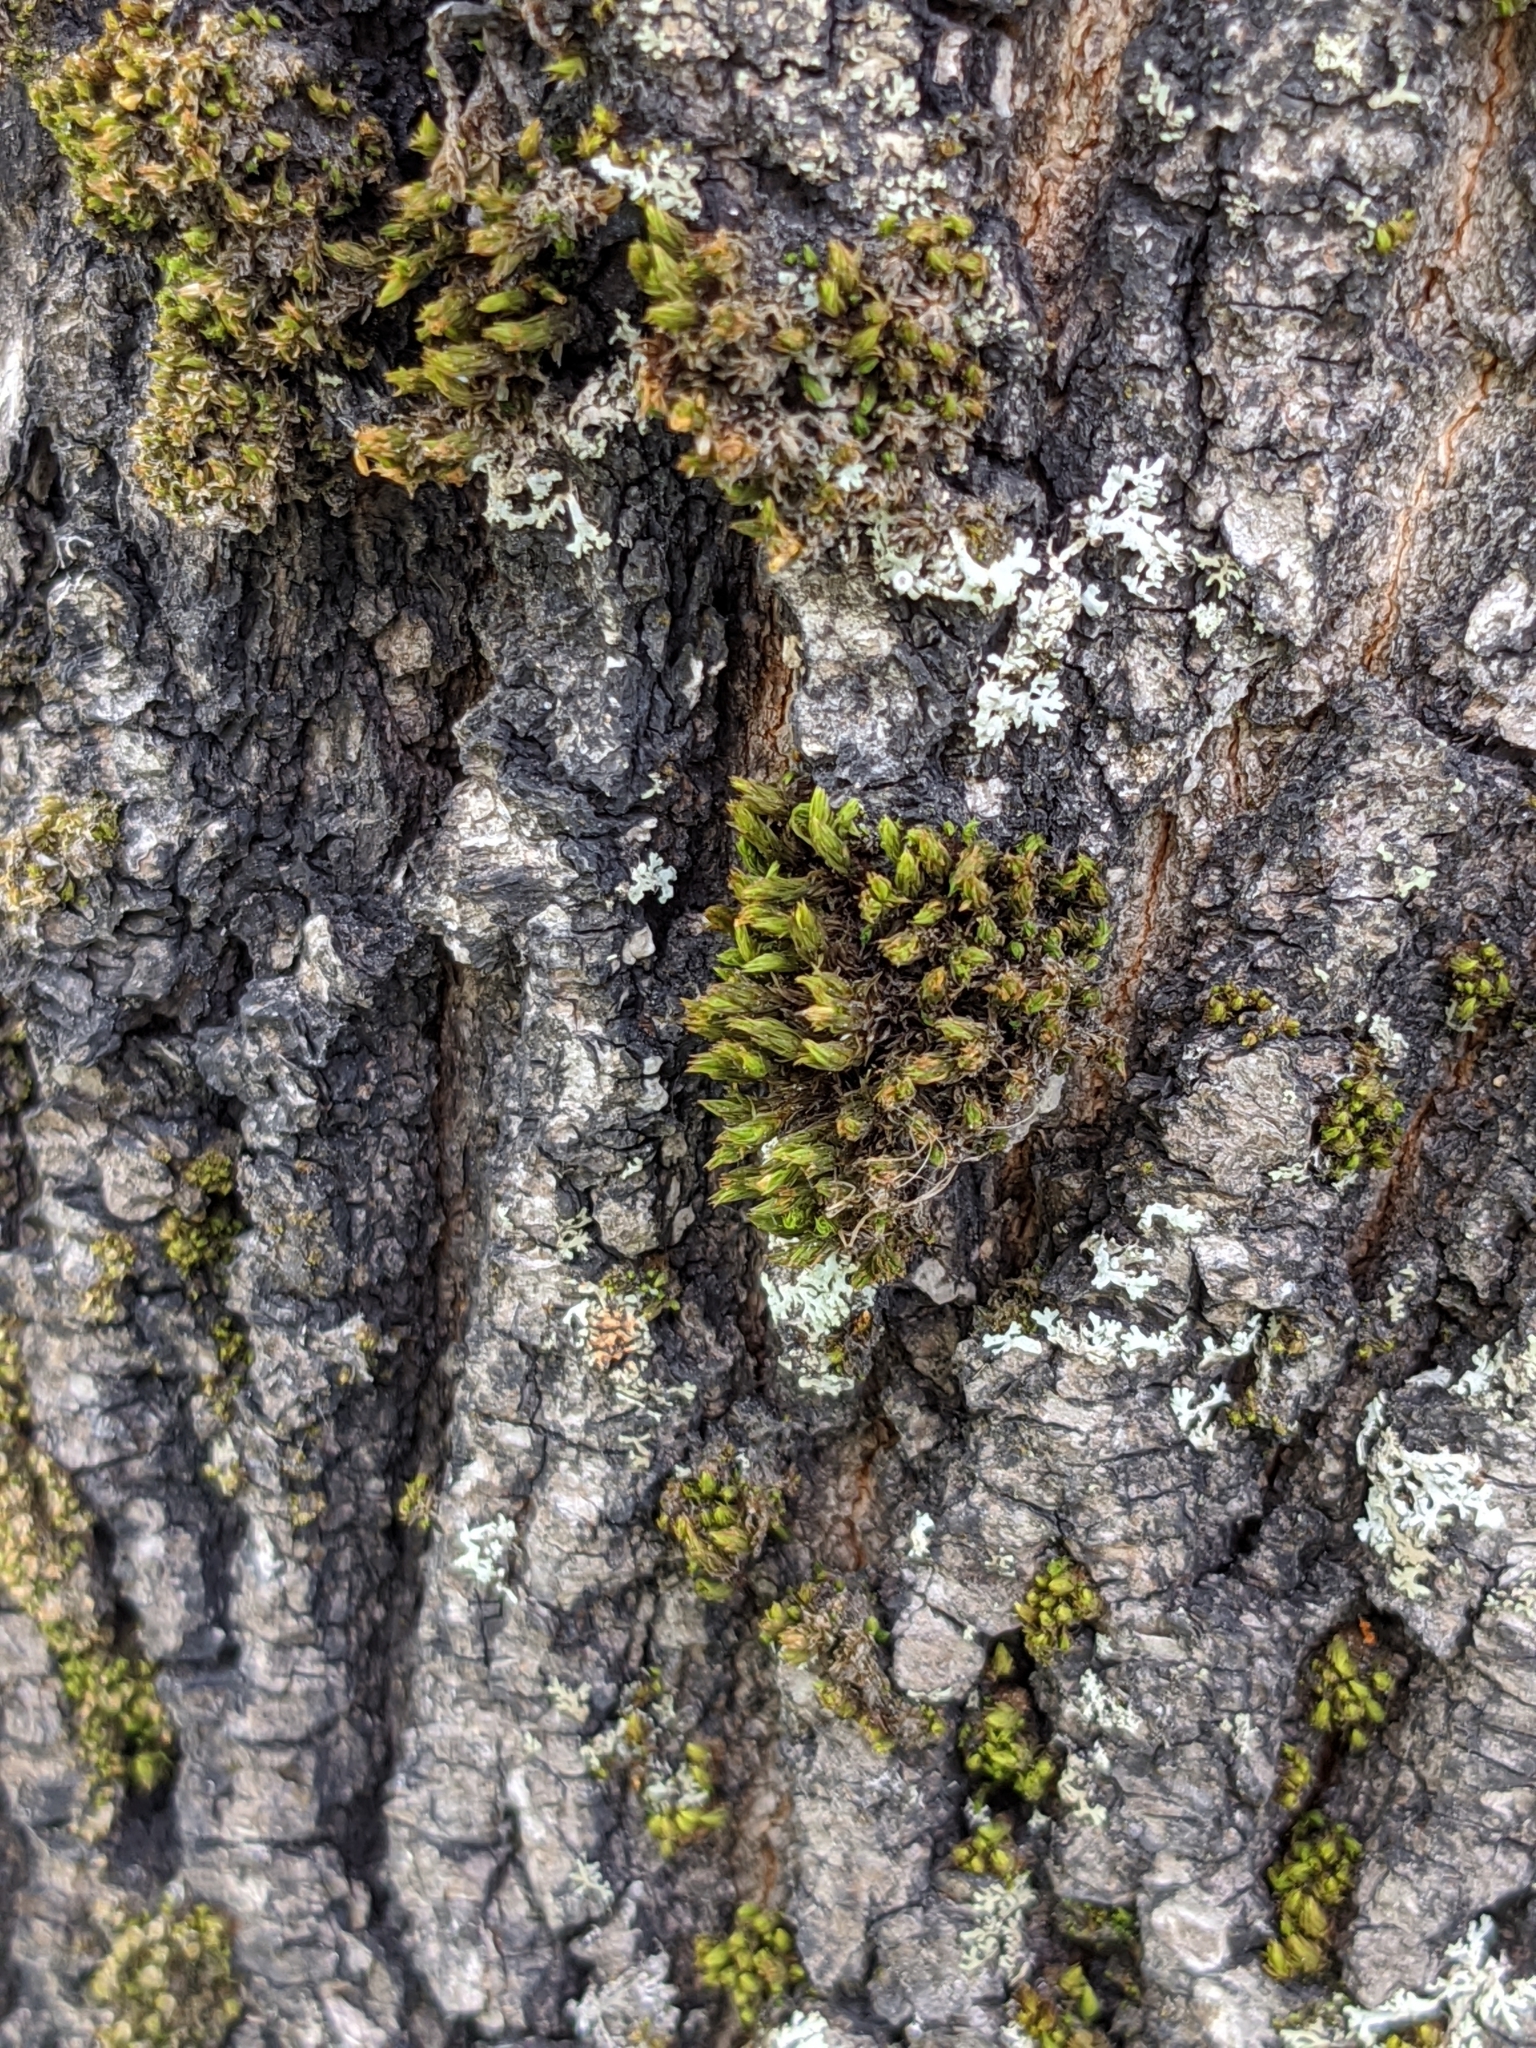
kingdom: Plantae
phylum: Bryophyta
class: Bryopsida
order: Orthotrichales
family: Orthotrichaceae
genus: Ulota
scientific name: Ulota crispa
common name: Crisped pincushion moss
